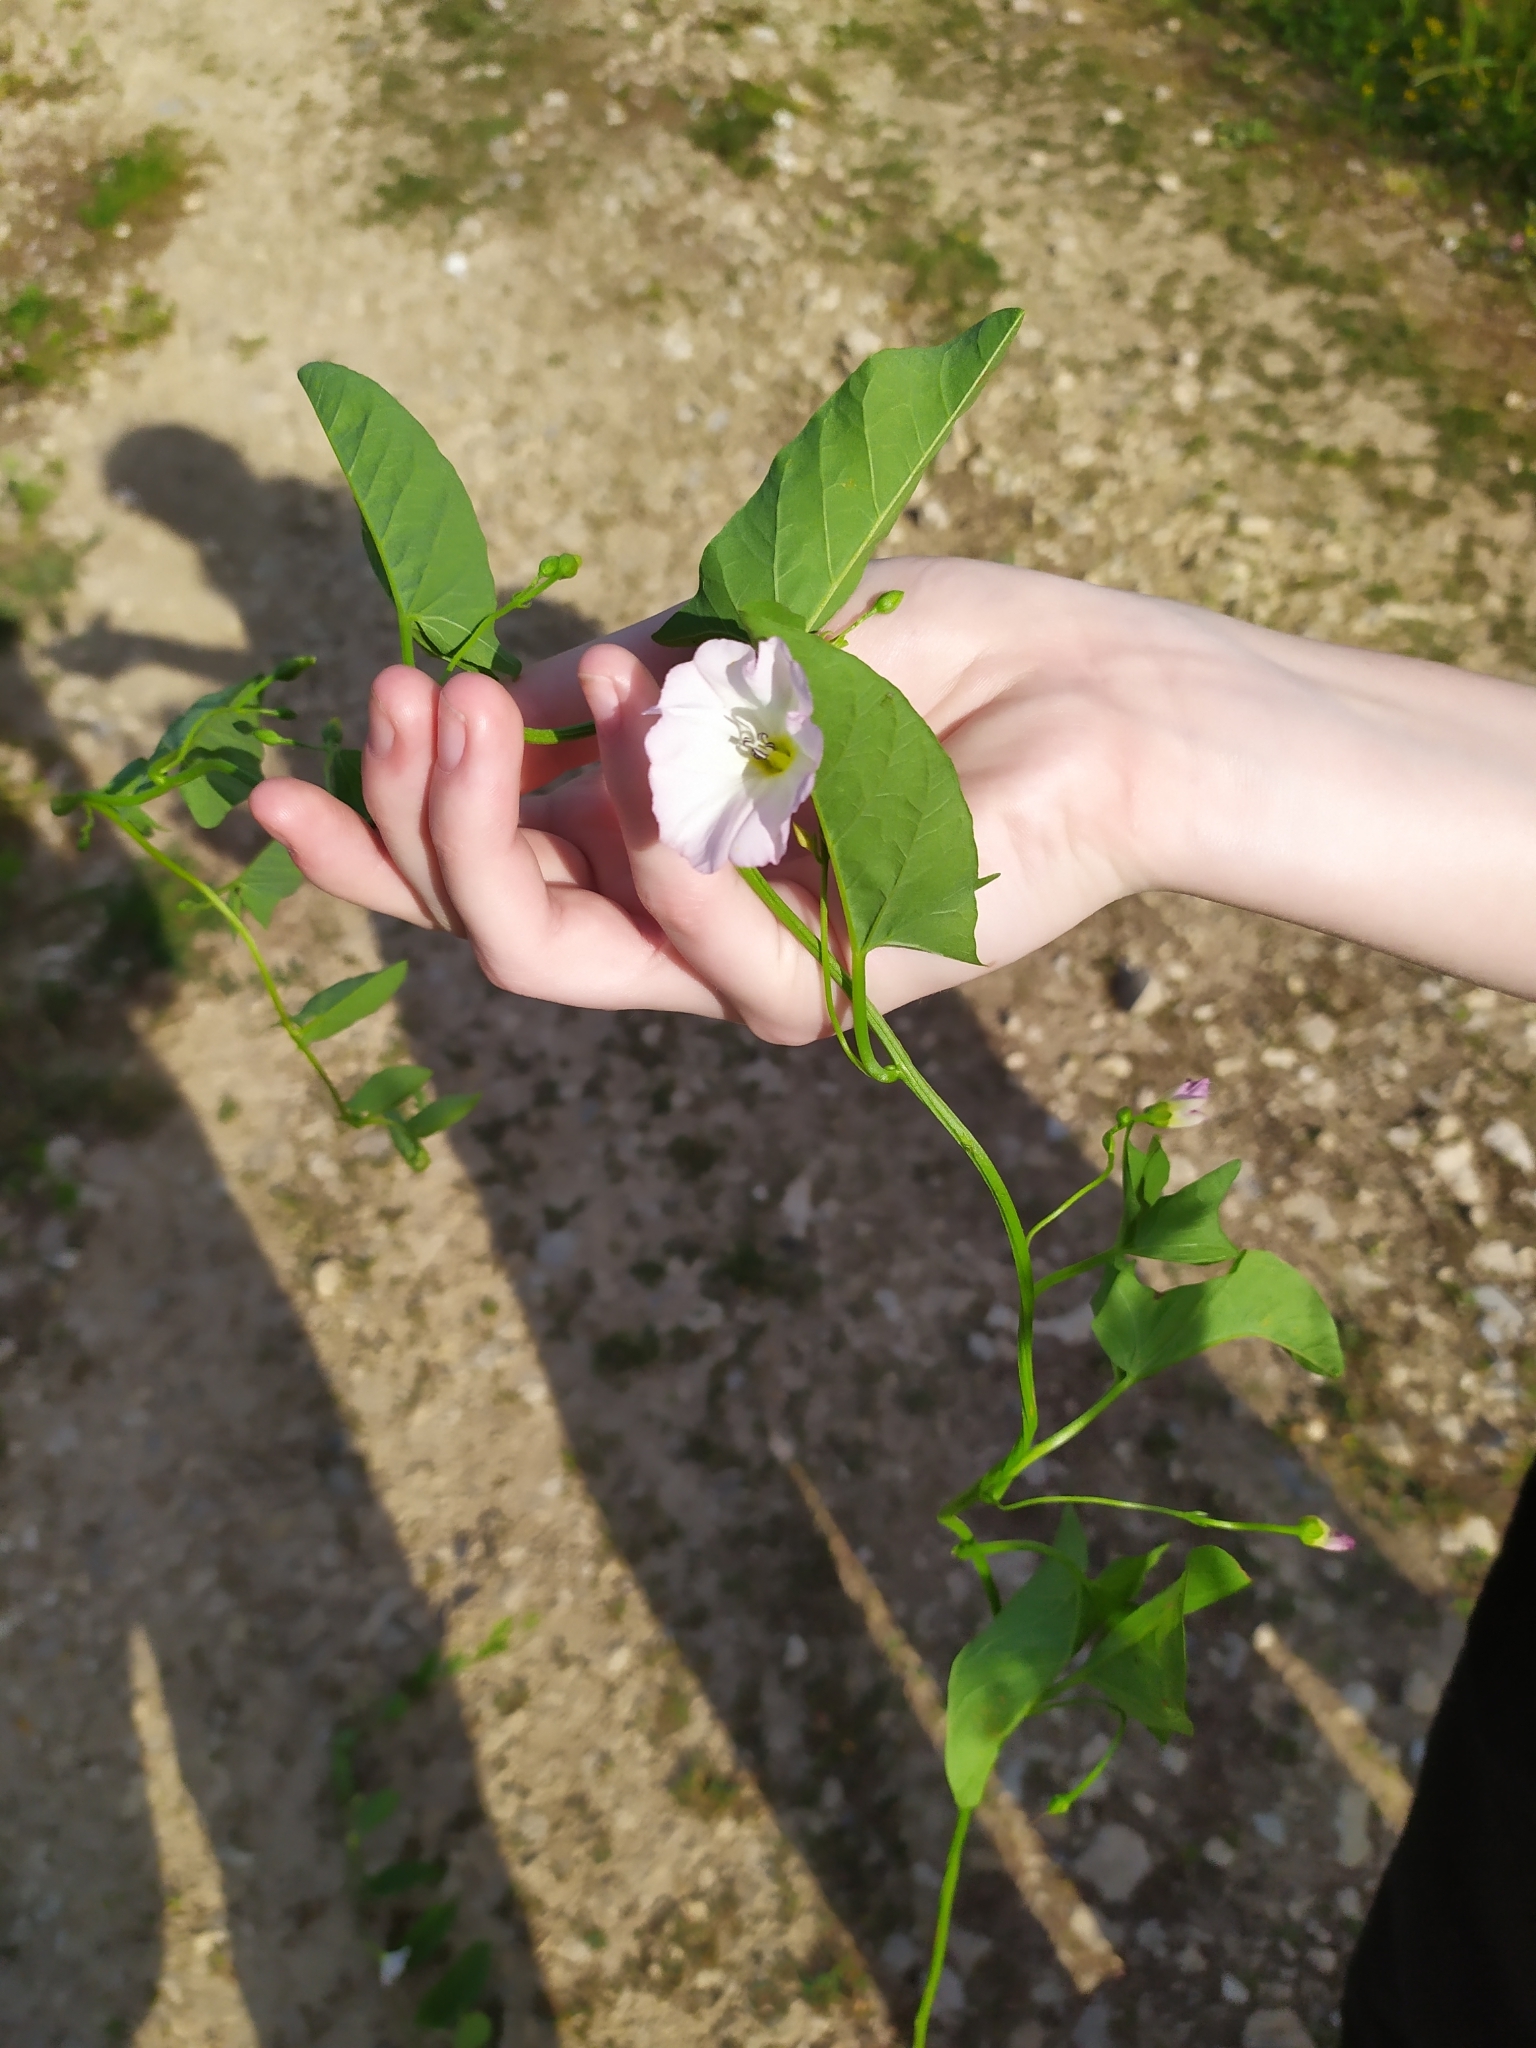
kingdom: Plantae
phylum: Tracheophyta
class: Magnoliopsida
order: Solanales
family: Convolvulaceae
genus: Convolvulus
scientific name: Convolvulus arvensis
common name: Field bindweed
